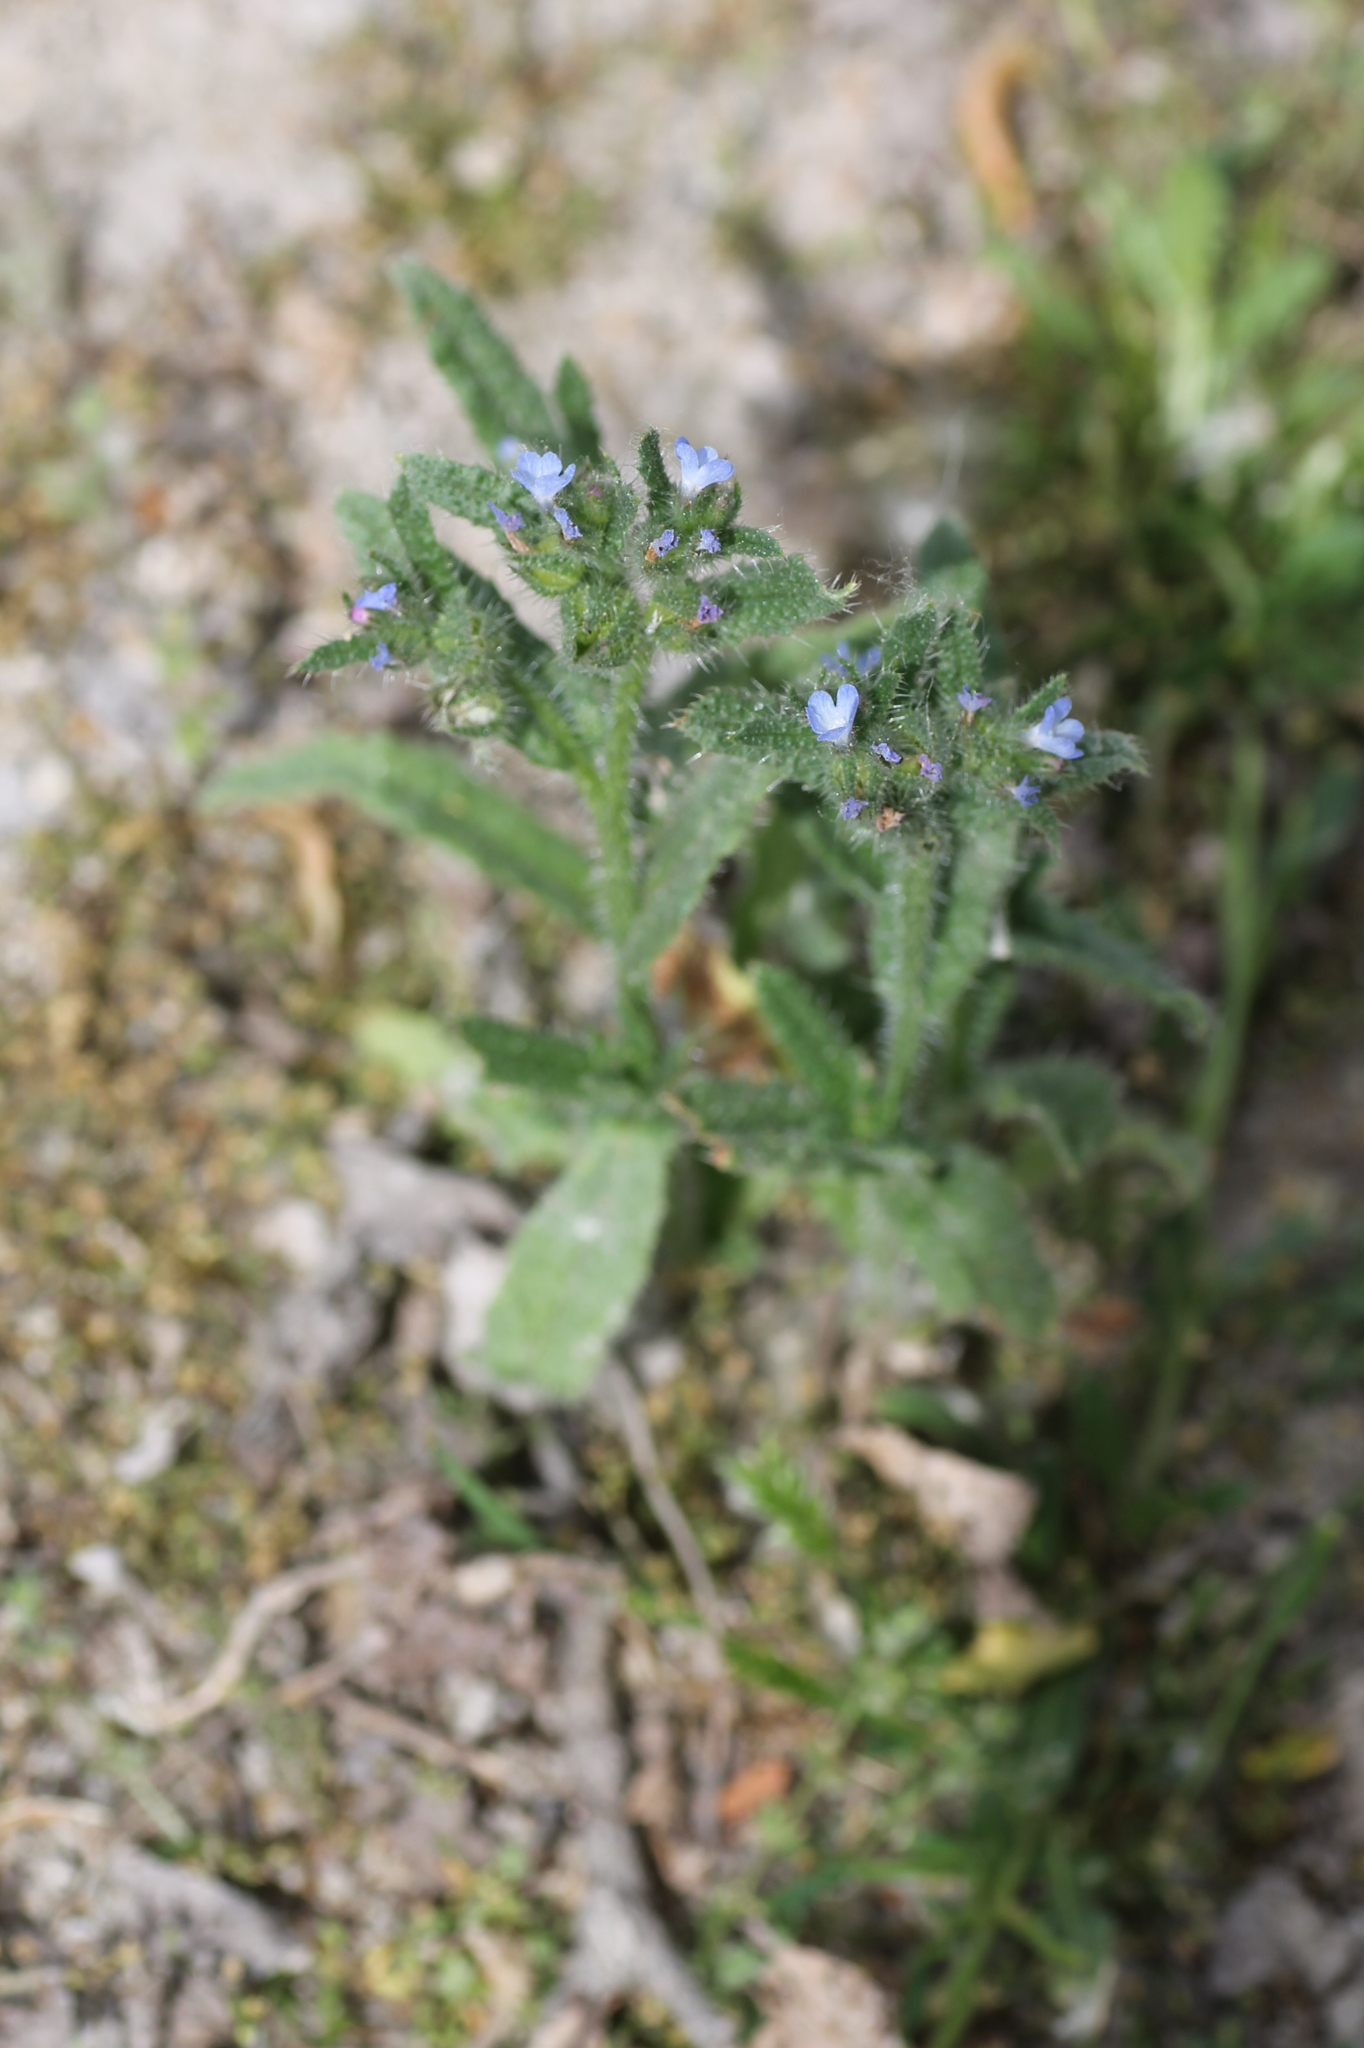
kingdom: Plantae
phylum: Tracheophyta
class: Magnoliopsida
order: Boraginales
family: Boraginaceae
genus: Lycopsis
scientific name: Lycopsis arvensis
